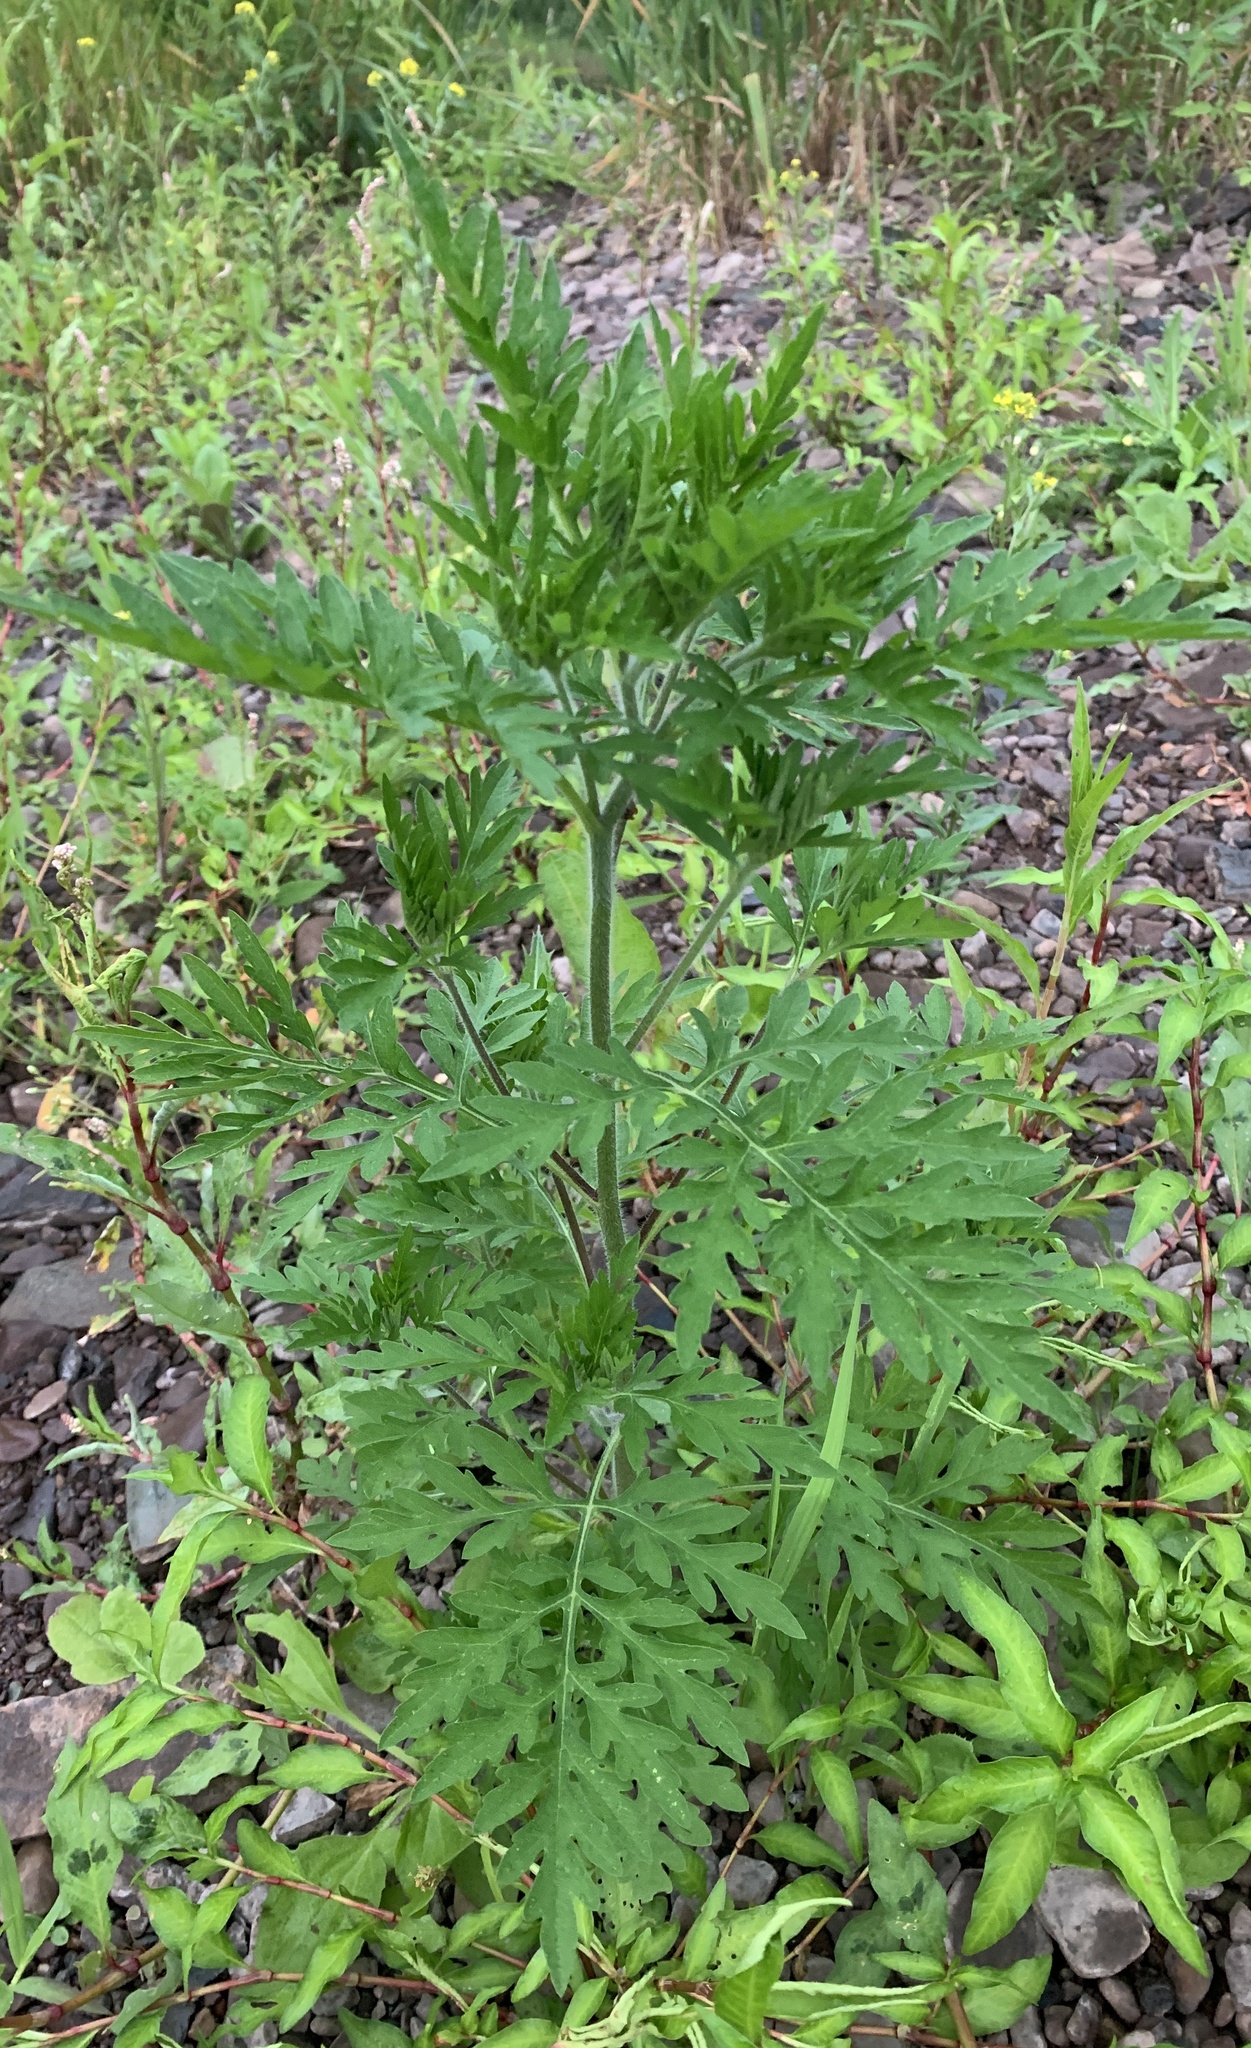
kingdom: Plantae
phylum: Tracheophyta
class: Magnoliopsida
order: Asterales
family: Asteraceae
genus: Ambrosia
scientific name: Ambrosia artemisiifolia
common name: Annual ragweed
